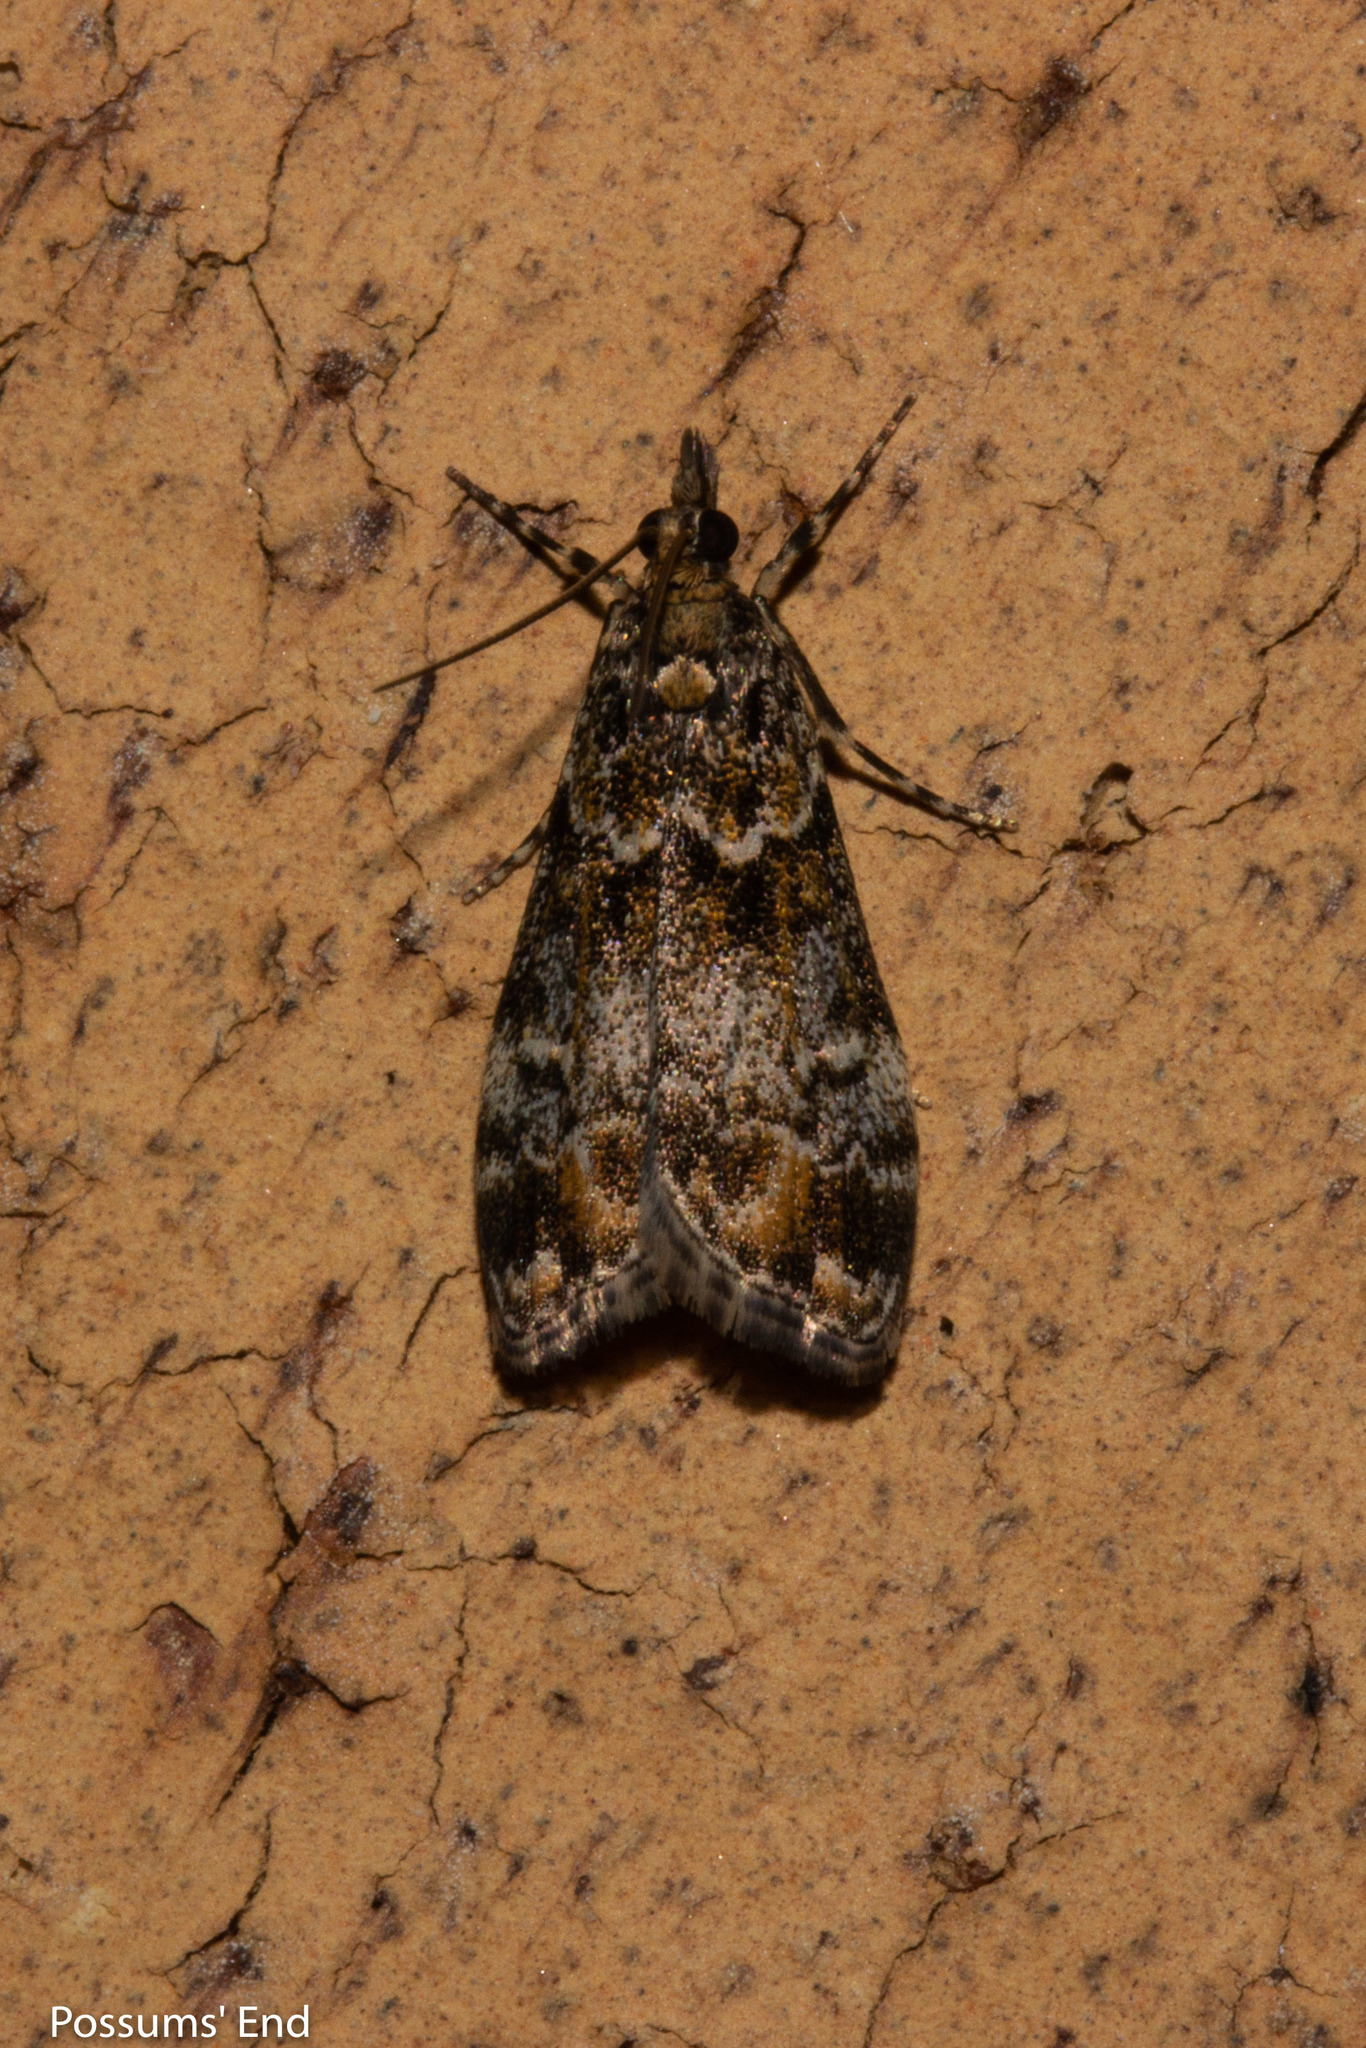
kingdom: Animalia
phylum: Arthropoda
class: Insecta
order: Lepidoptera
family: Crambidae
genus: Eudonia
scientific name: Eudonia minualis
